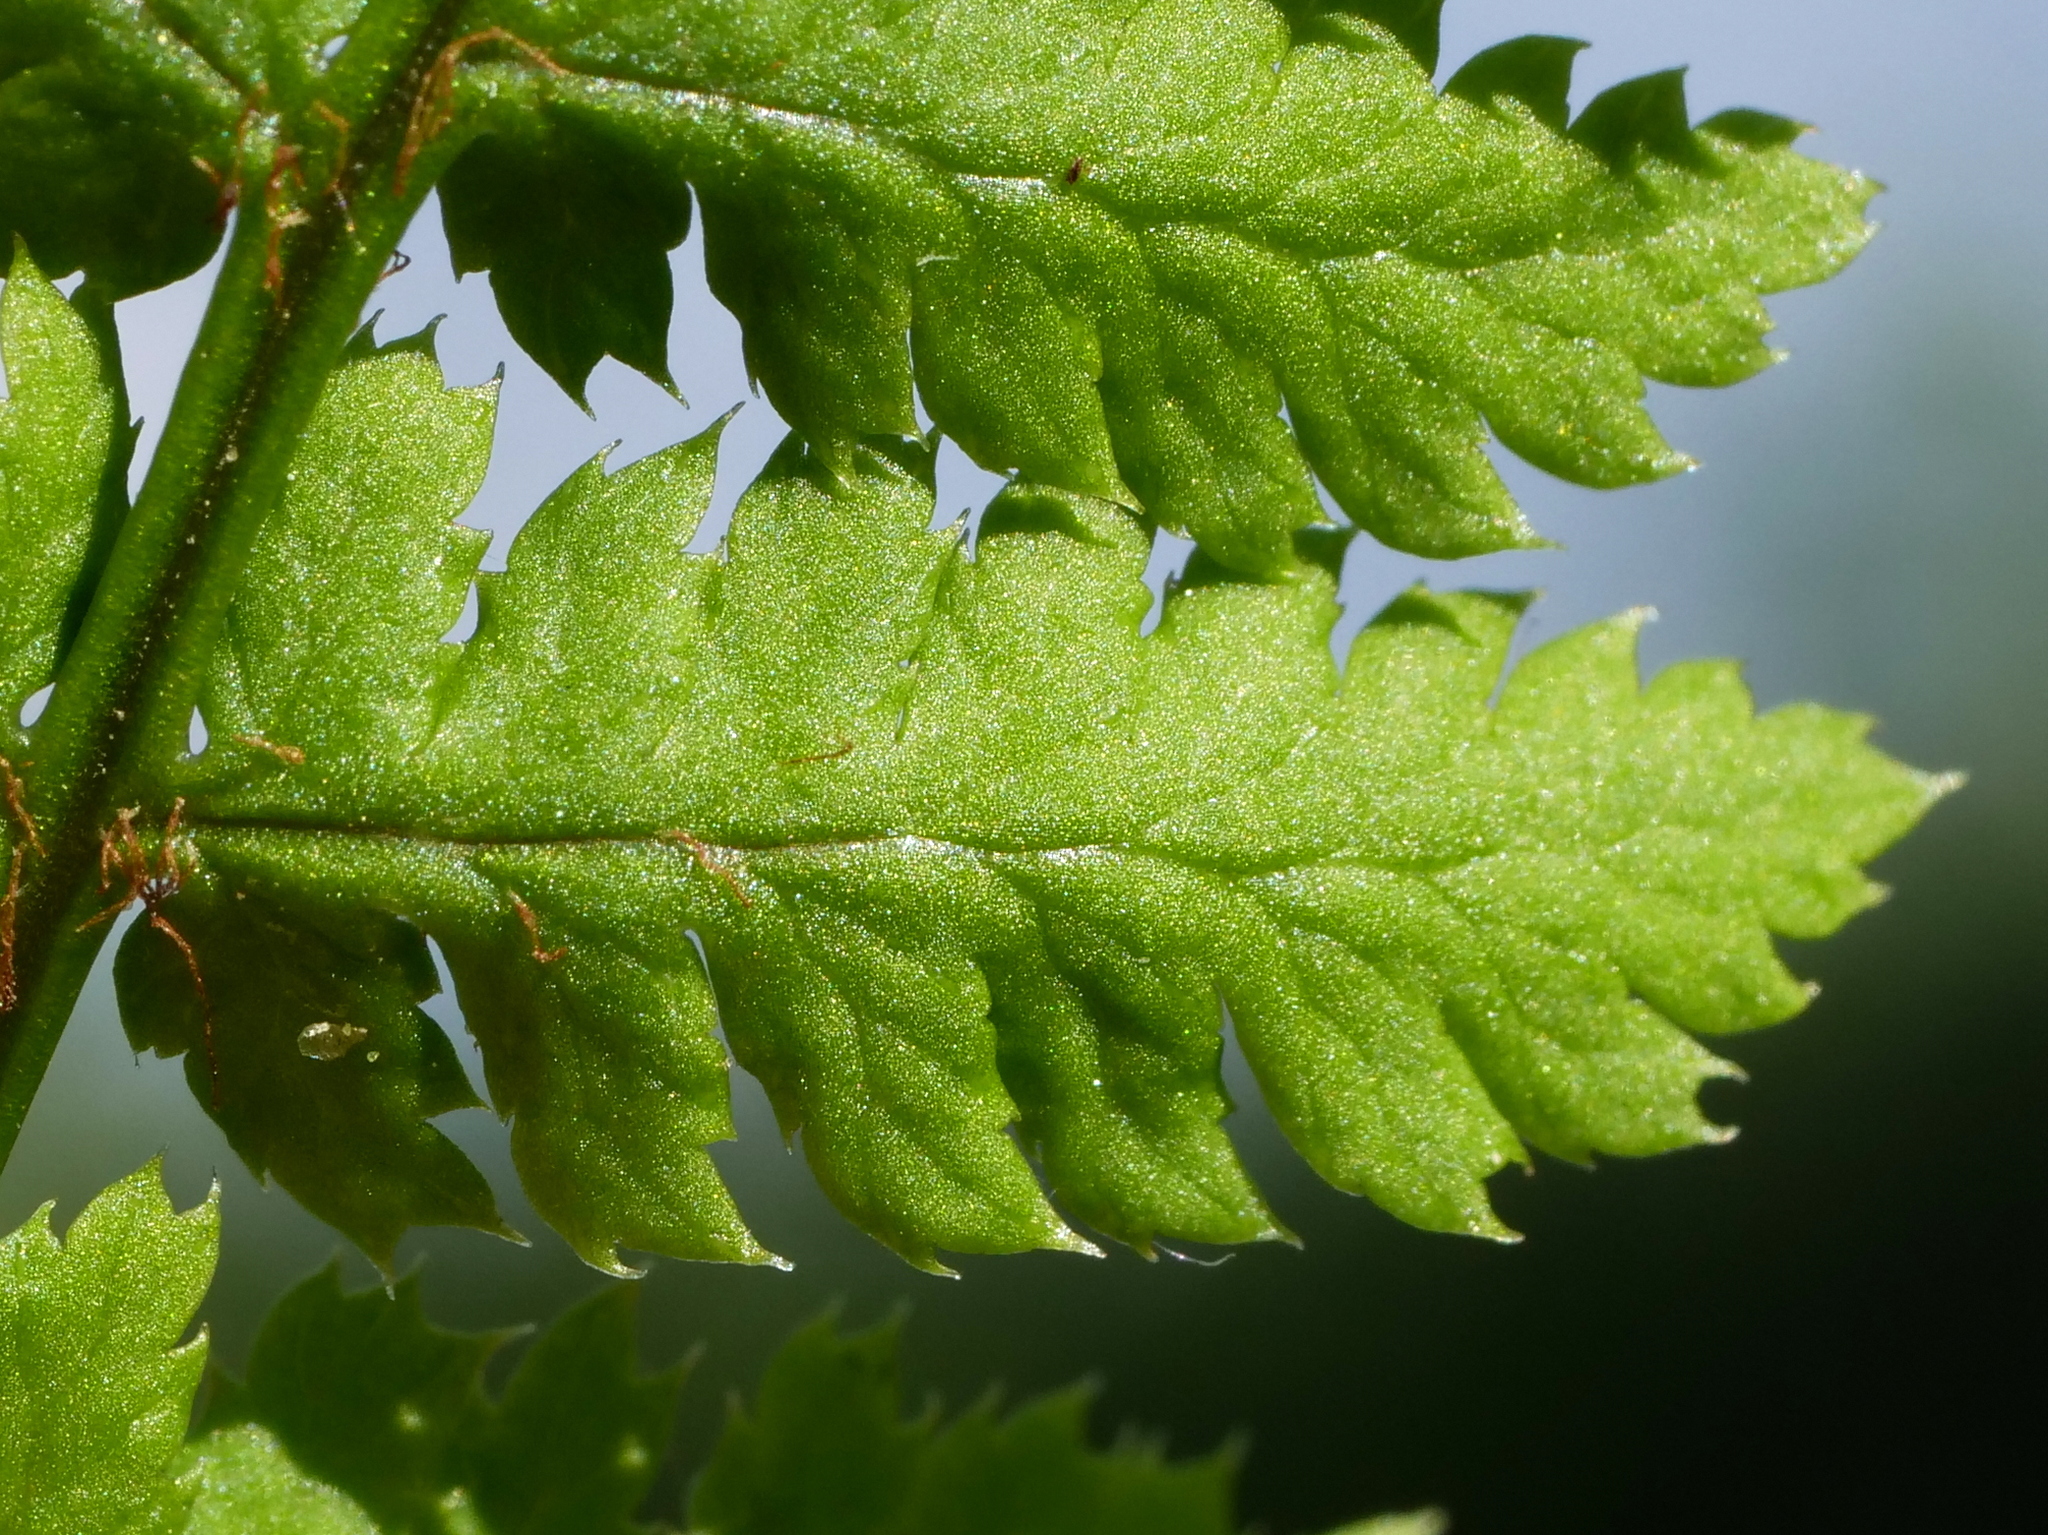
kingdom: Plantae
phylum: Tracheophyta
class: Polypodiopsida
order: Polypodiales
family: Dryopteridaceae
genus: Dryopteris
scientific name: Dryopteris carthusiana
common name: Narrow buckler-fern
